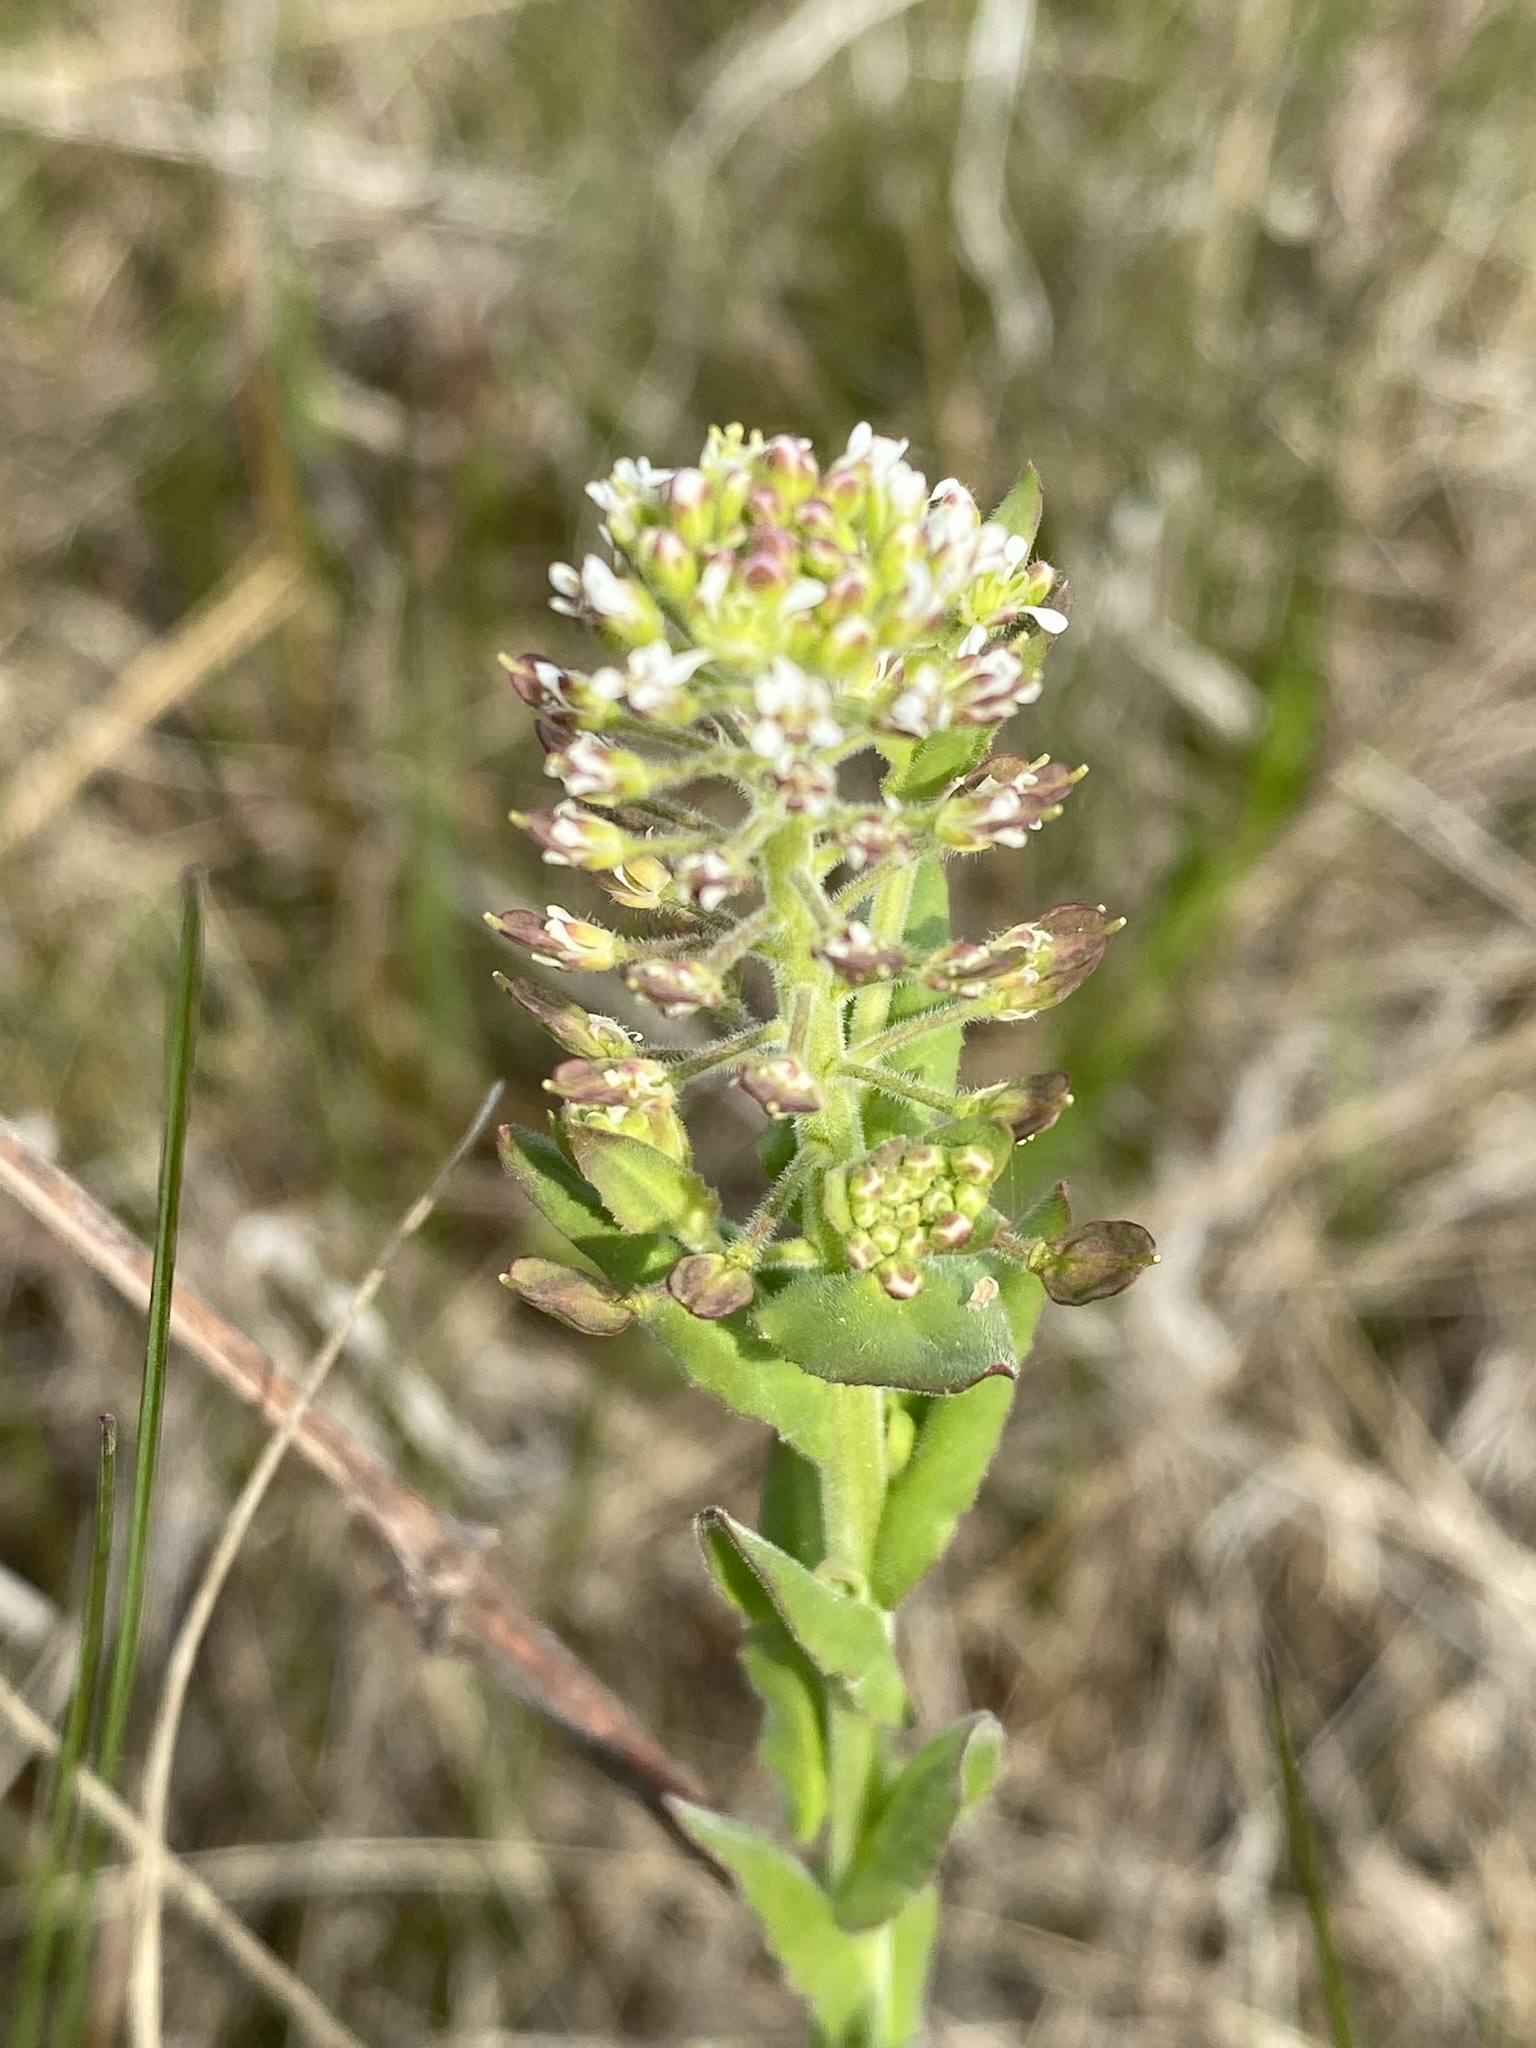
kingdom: Plantae
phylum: Tracheophyta
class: Magnoliopsida
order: Brassicales
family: Brassicaceae
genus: Lepidium
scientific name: Lepidium campestre
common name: Field pepperwort
